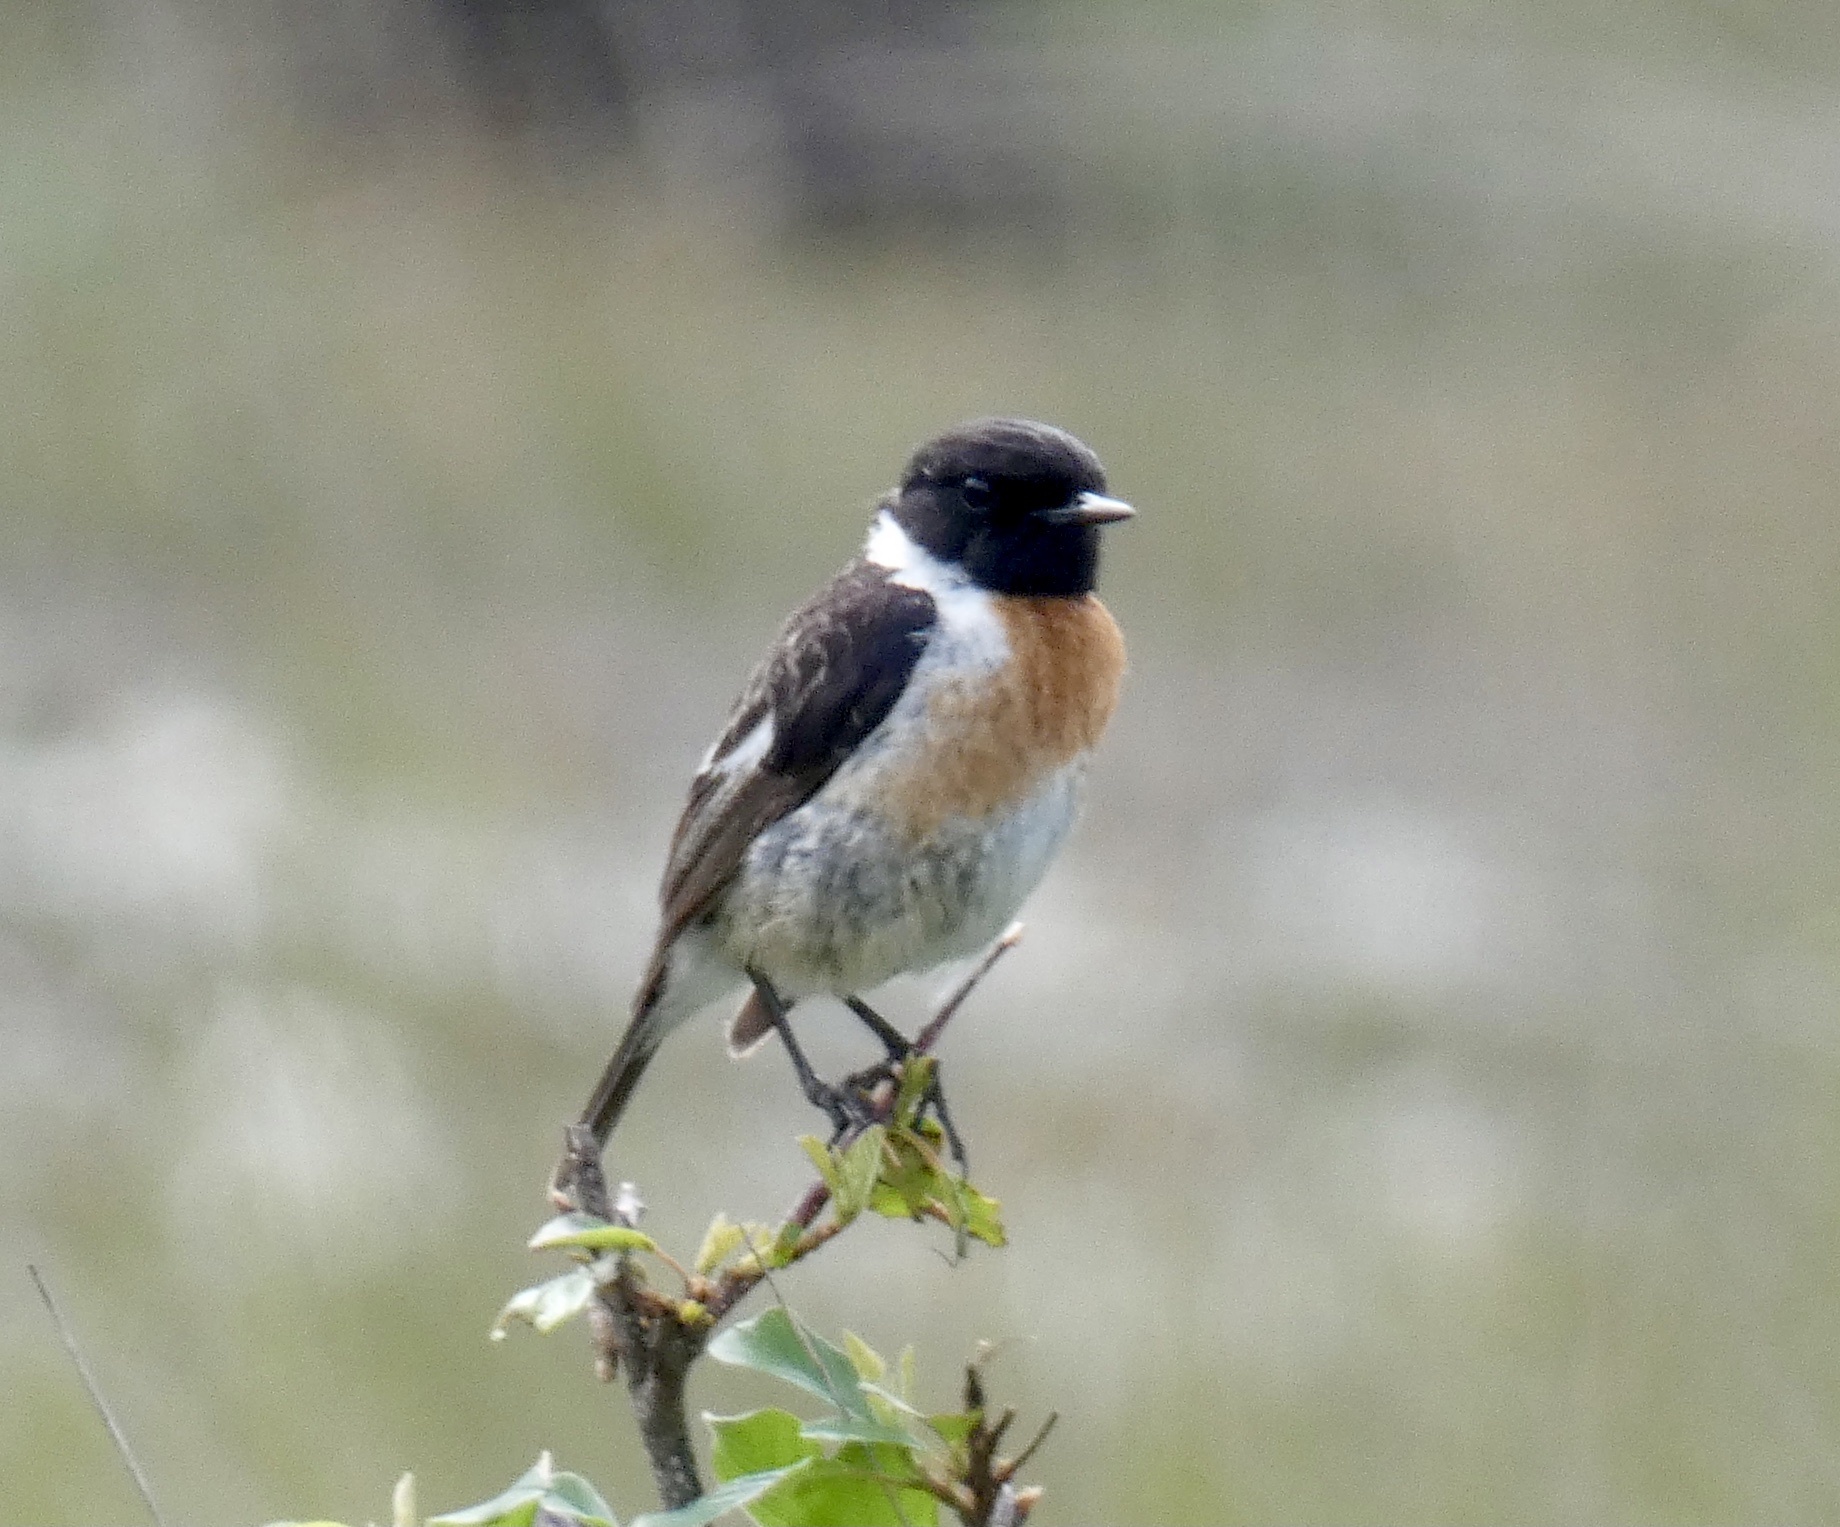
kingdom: Animalia
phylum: Chordata
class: Aves
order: Passeriformes
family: Muscicapidae
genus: Saxicola
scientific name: Saxicola rubicola
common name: European stonechat
